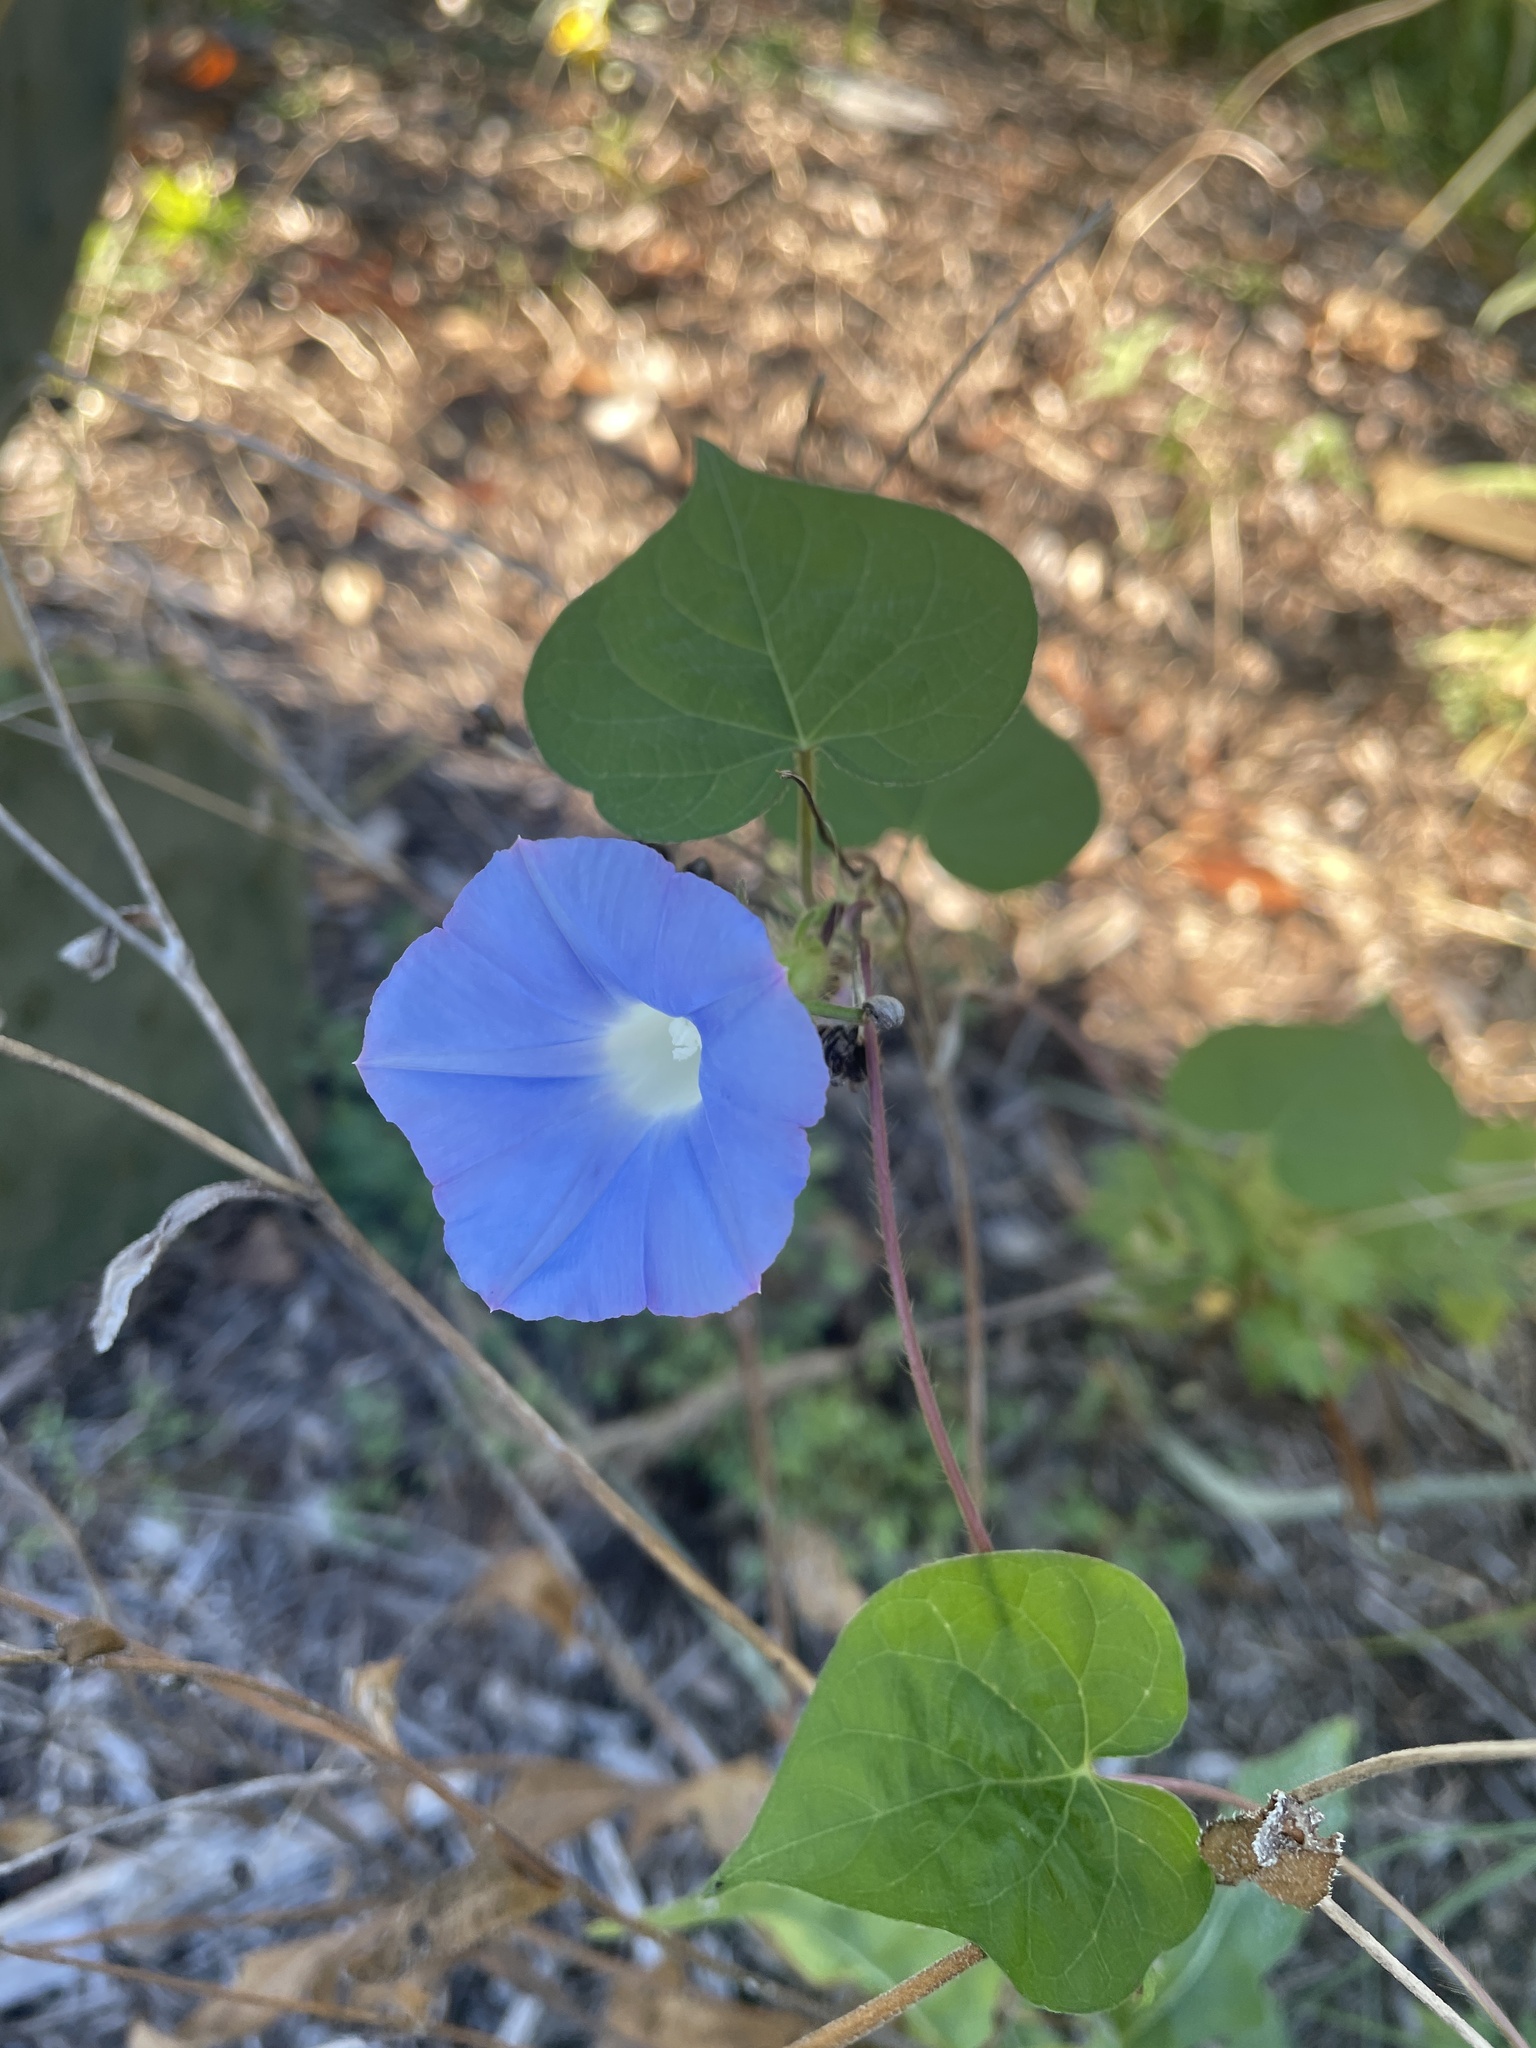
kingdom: Plantae
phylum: Tracheophyta
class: Magnoliopsida
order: Solanales
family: Convolvulaceae
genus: Ipomoea
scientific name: Ipomoea hederacea
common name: Ivy-leaved morning-glory
